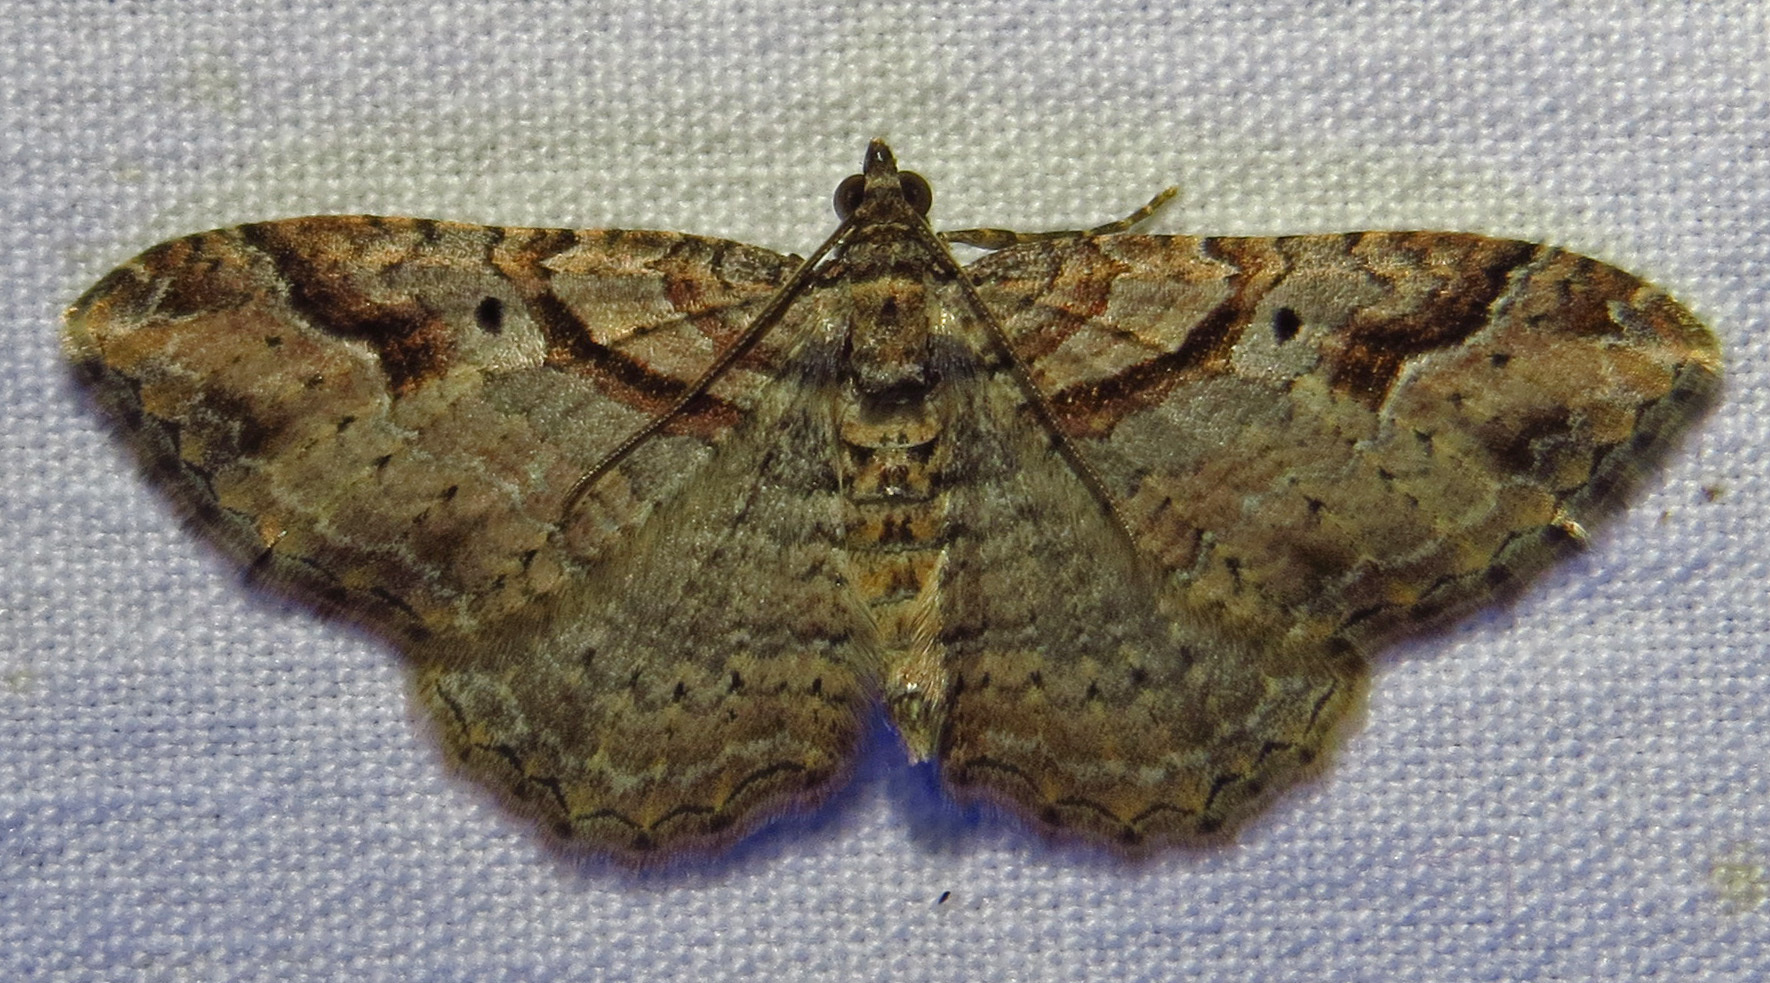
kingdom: Animalia
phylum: Arthropoda
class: Insecta
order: Lepidoptera
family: Geometridae
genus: Costaconvexa
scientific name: Costaconvexa centrostrigaria
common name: Bent-line carpet
